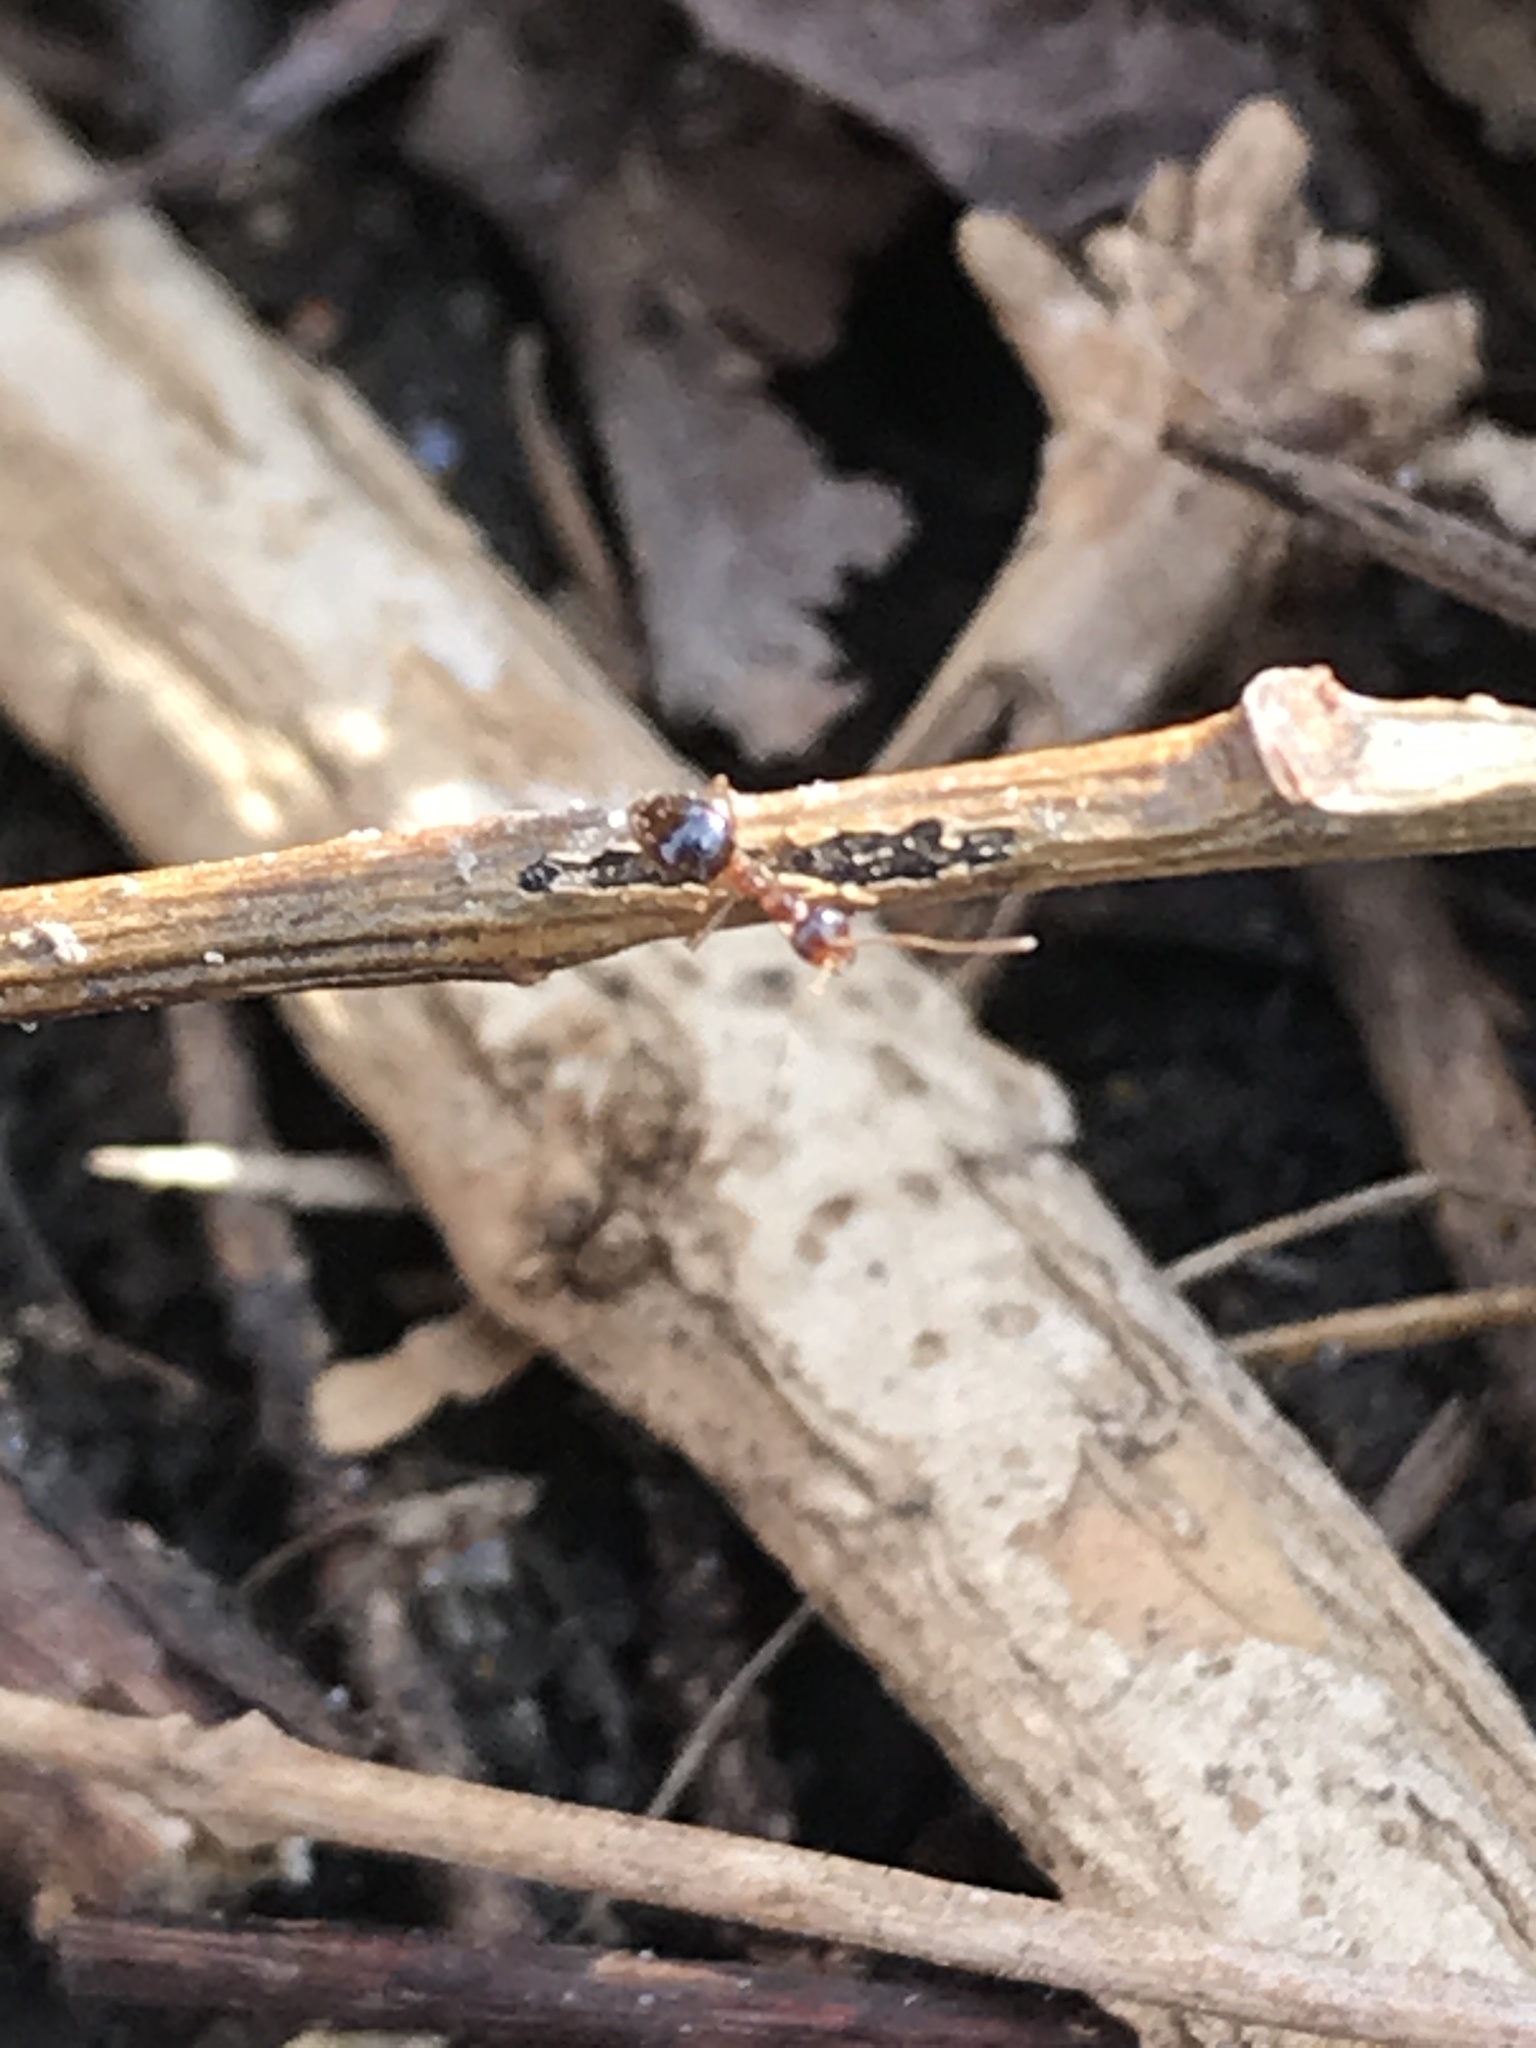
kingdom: Animalia
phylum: Arthropoda
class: Insecta
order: Hymenoptera
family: Formicidae
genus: Prenolepis
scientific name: Prenolepis imparis
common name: Small honey ant
